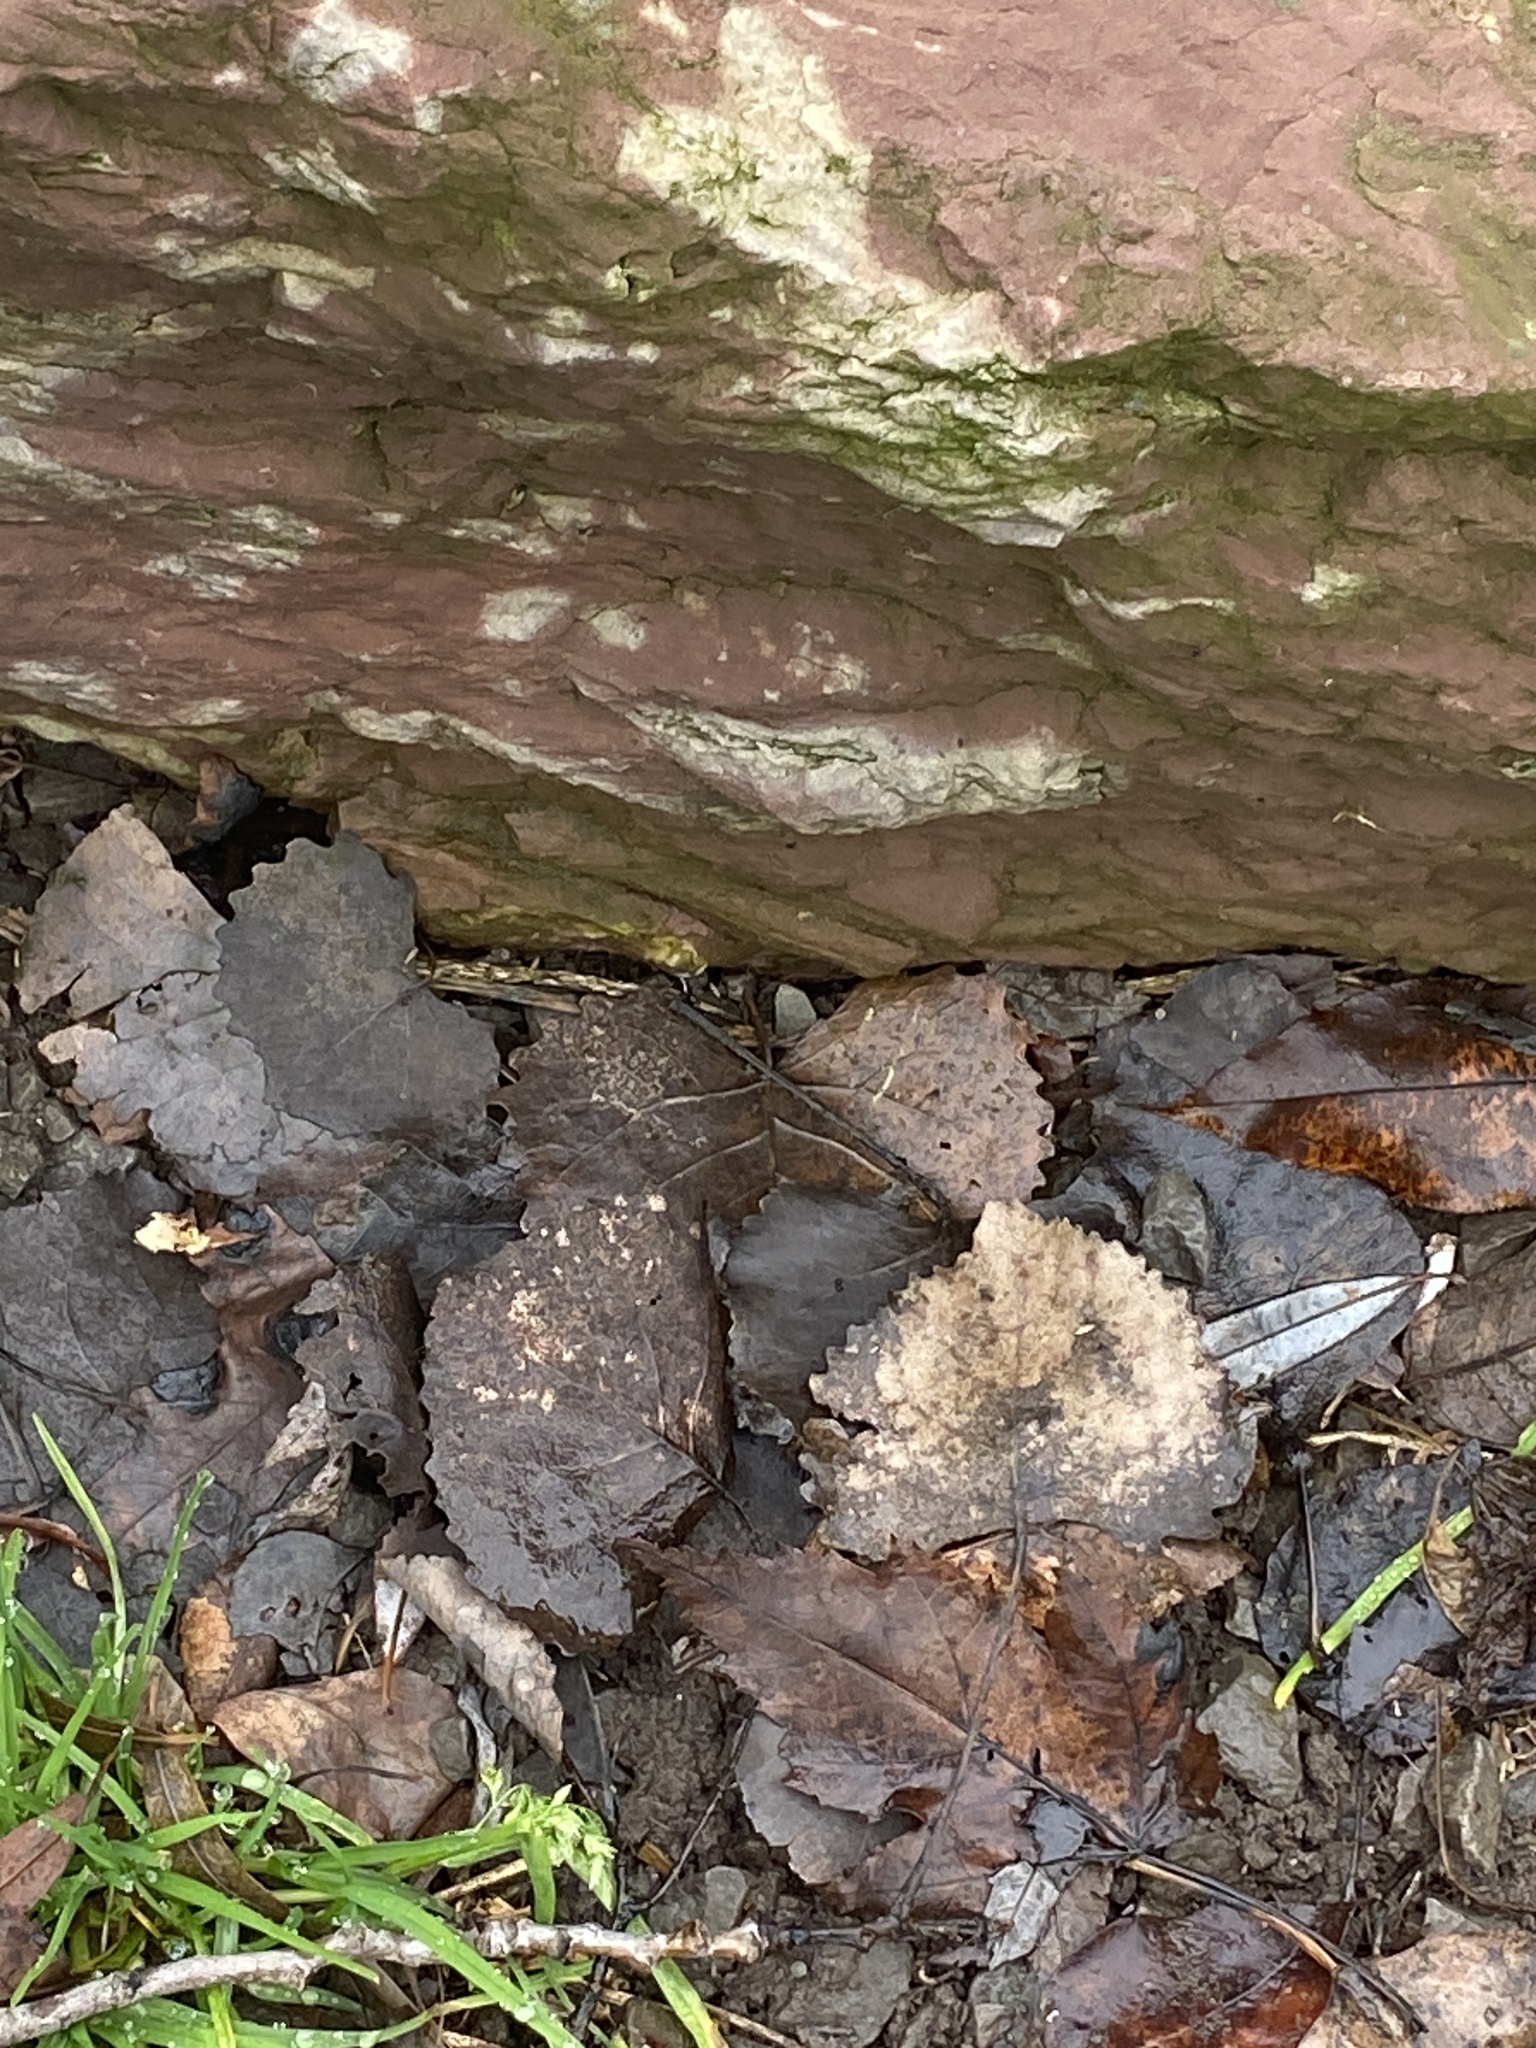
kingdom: Plantae
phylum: Tracheophyta
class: Magnoliopsida
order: Malpighiales
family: Salicaceae
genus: Populus
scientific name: Populus deltoides
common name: Eastern cottonwood
